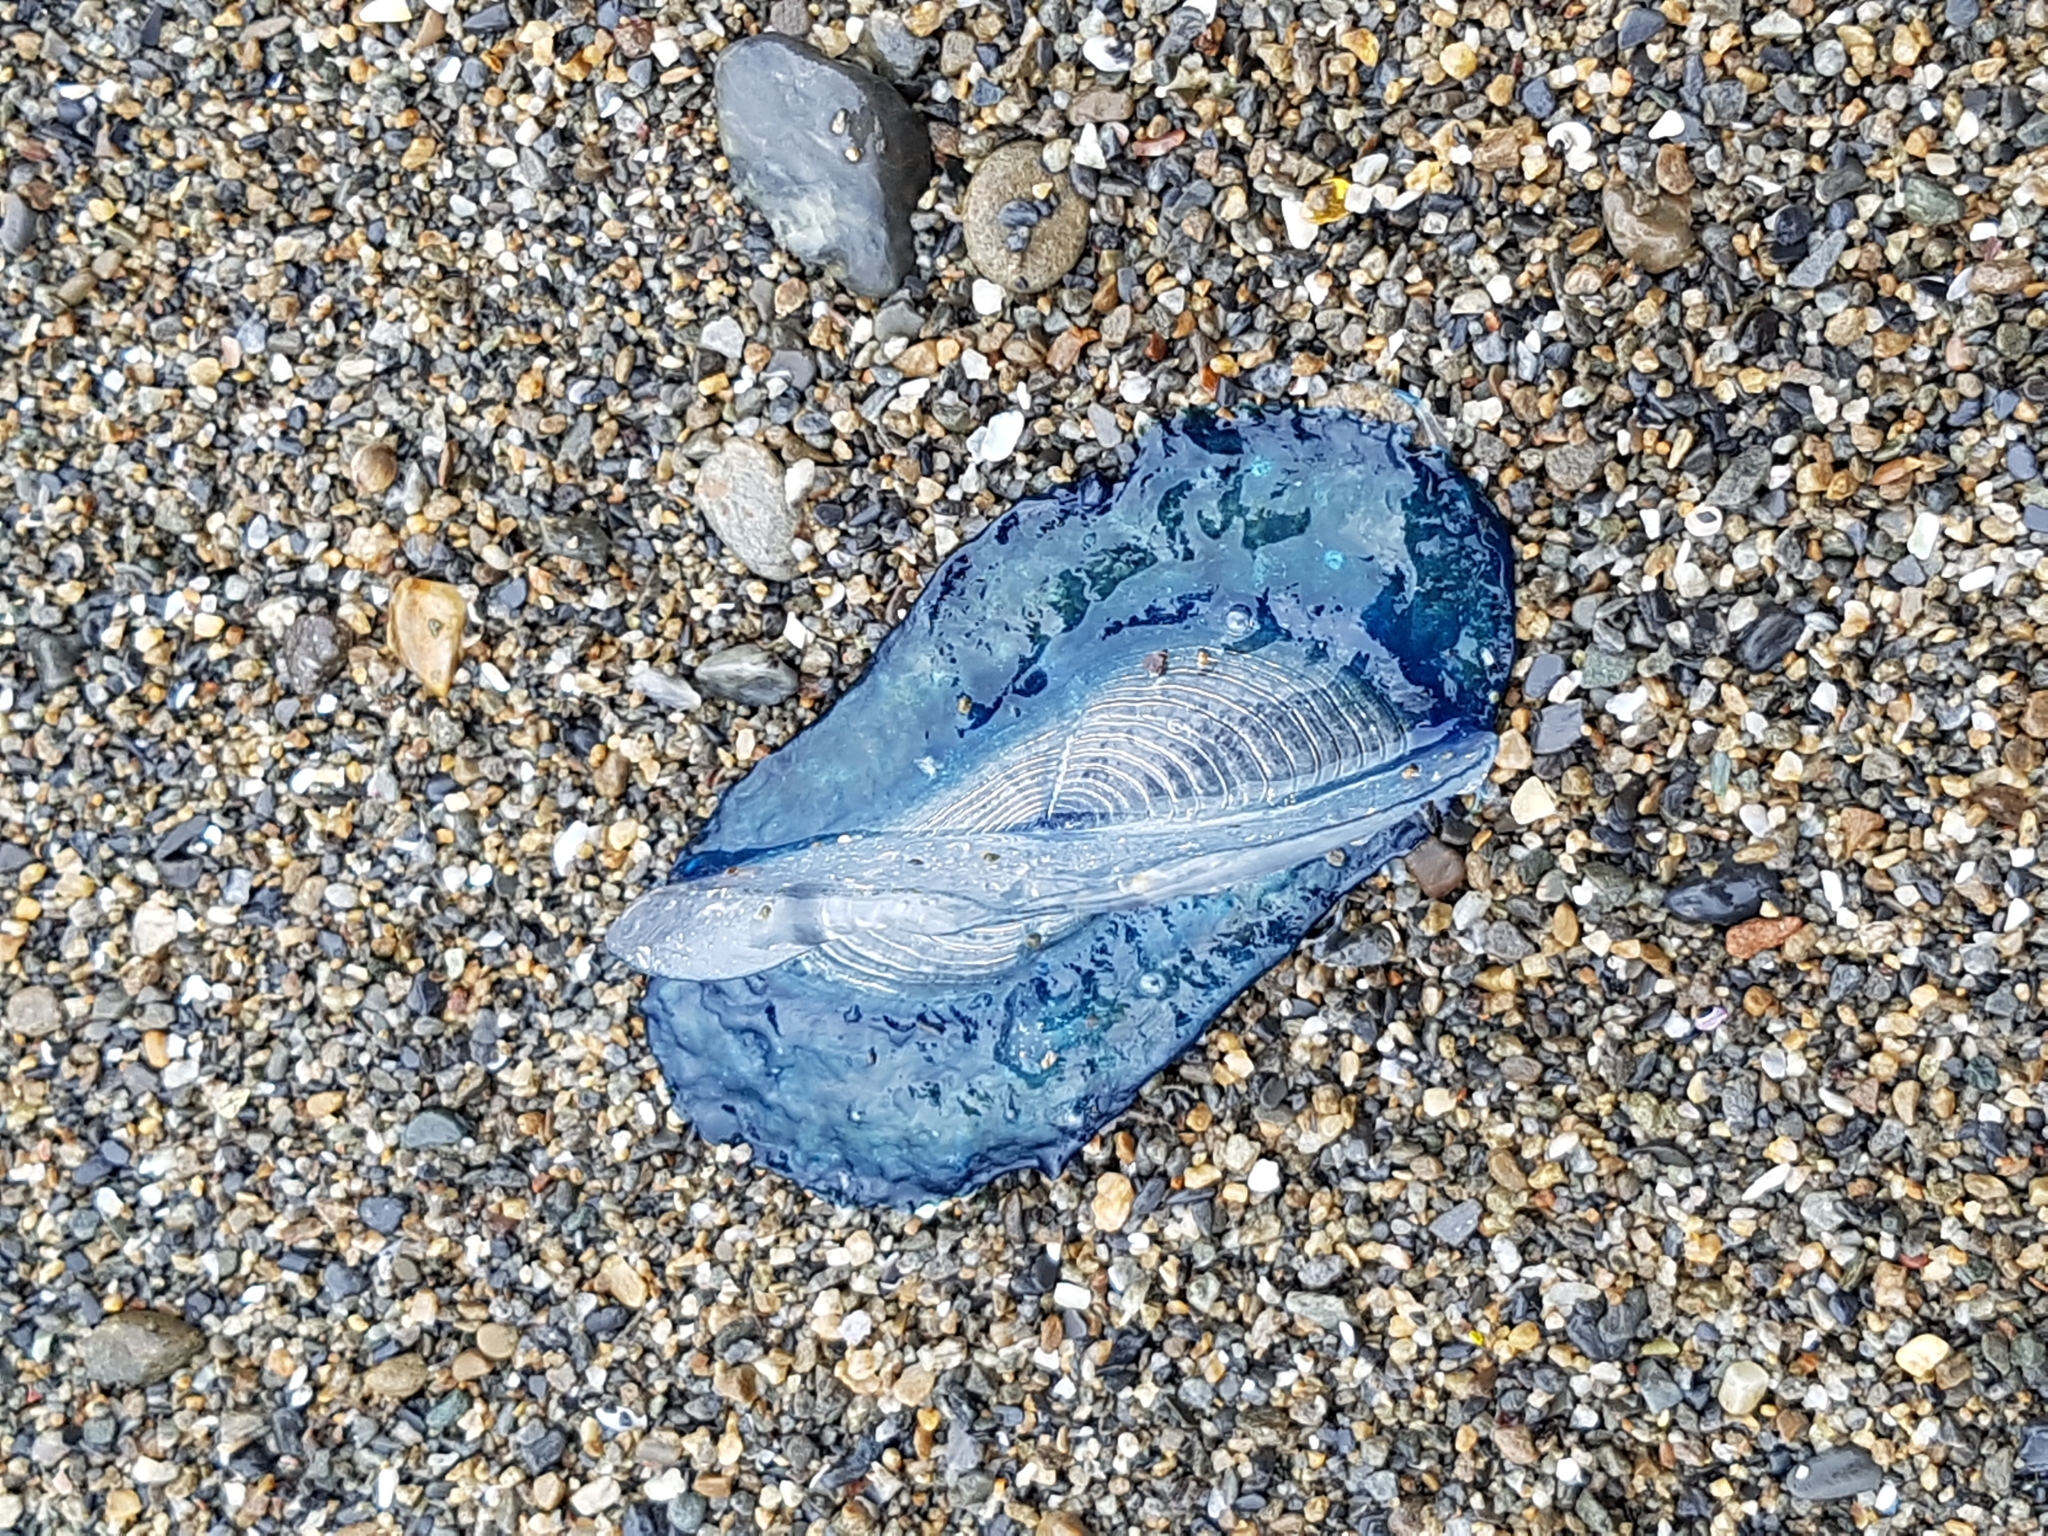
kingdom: Animalia
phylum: Cnidaria
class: Hydrozoa
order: Anthoathecata
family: Porpitidae
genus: Velella
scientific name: Velella velella
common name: By-the-wind-sailor
